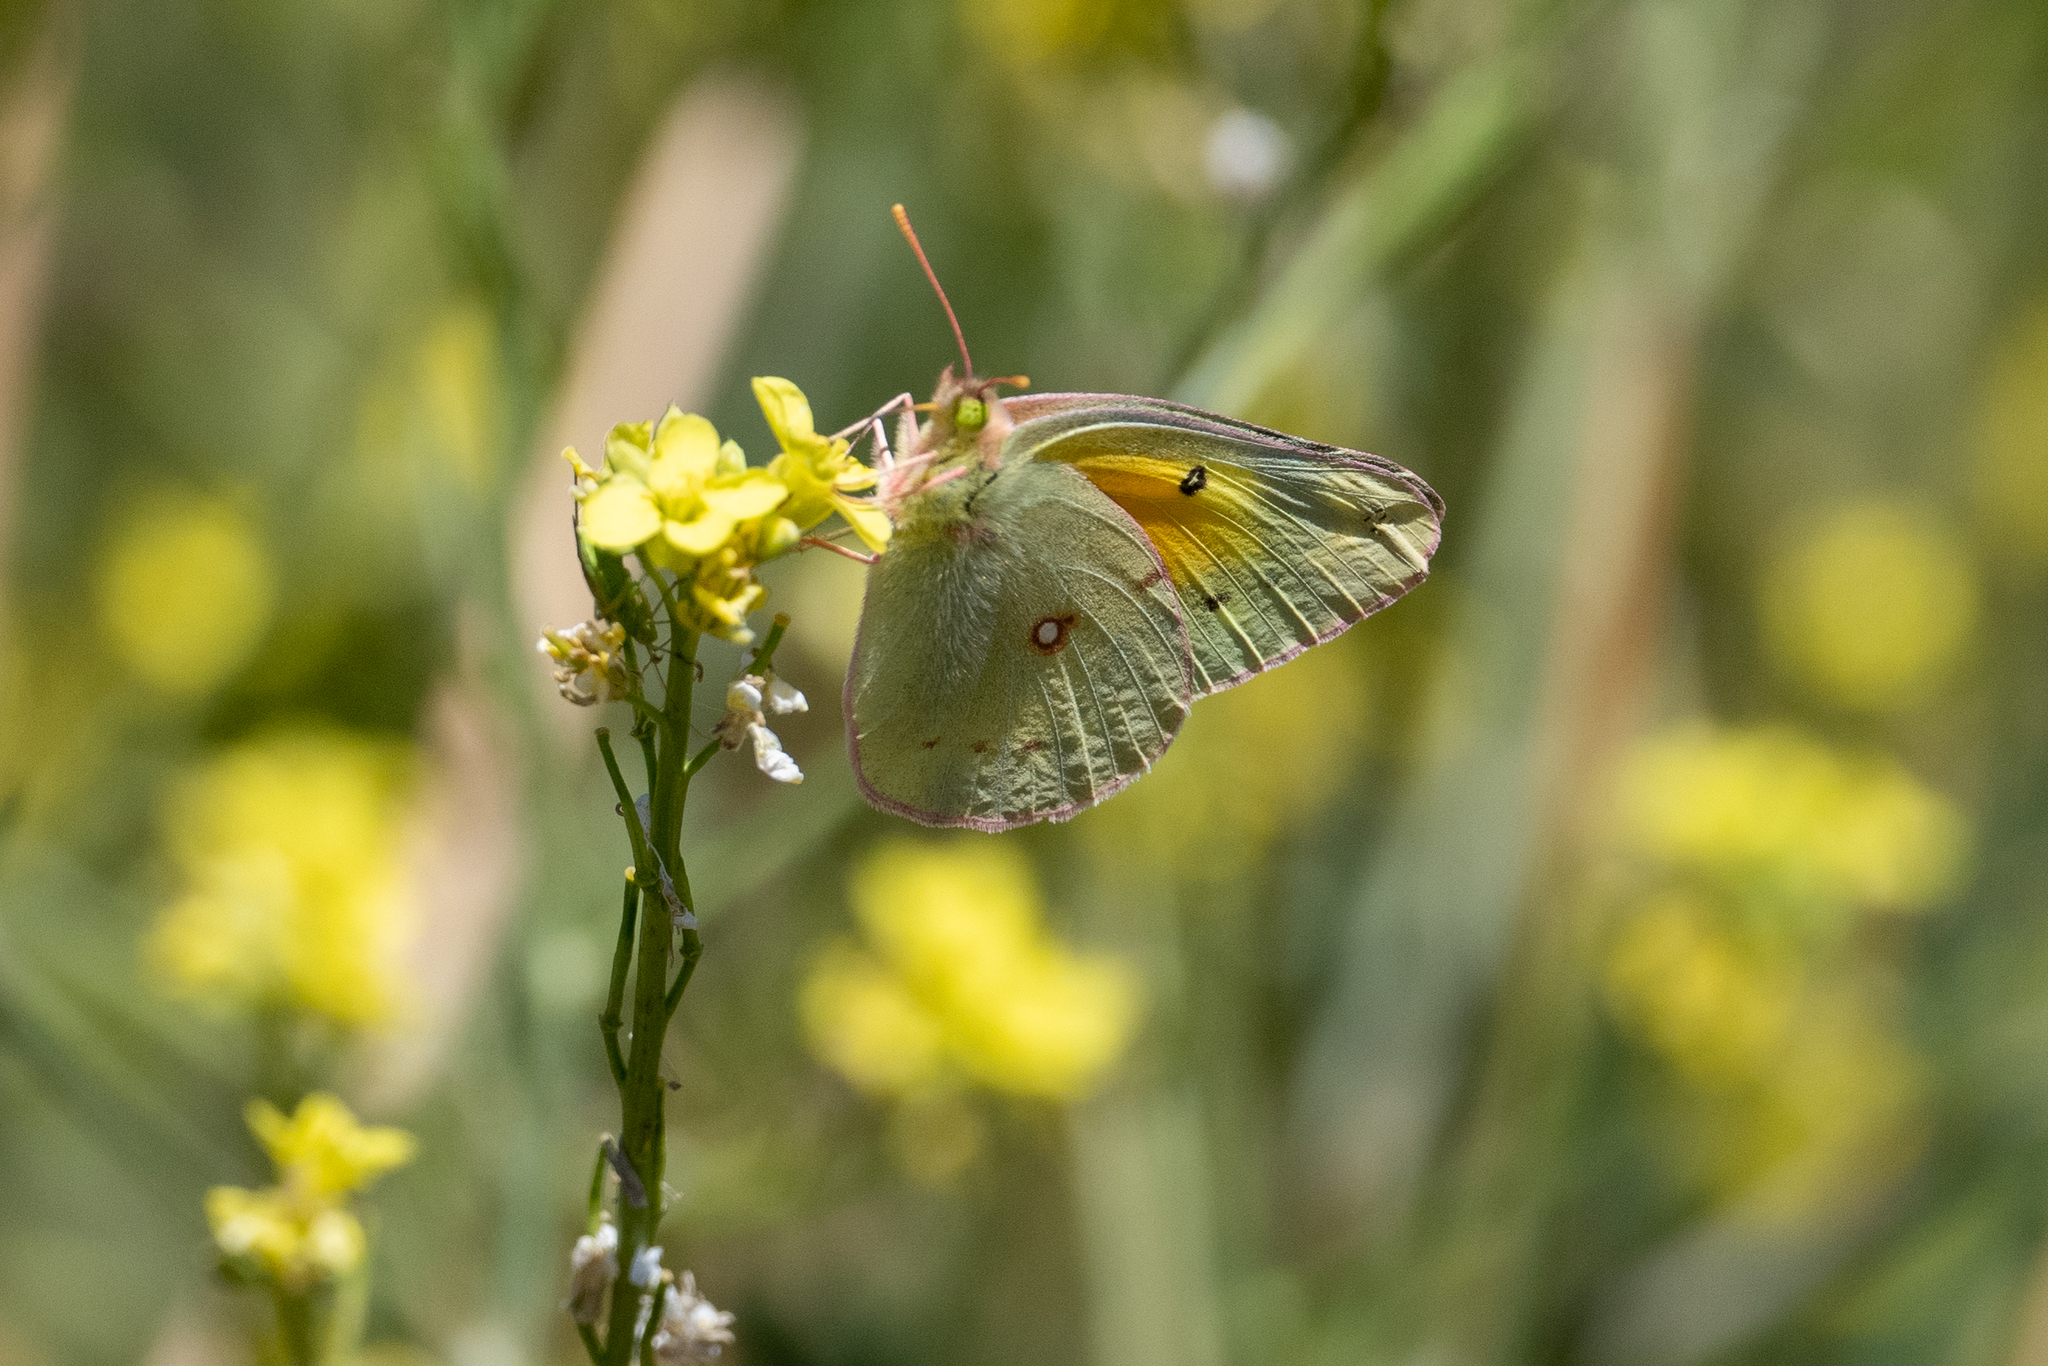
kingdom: Animalia
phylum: Arthropoda
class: Insecta
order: Lepidoptera
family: Pieridae
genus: Colias
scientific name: Colias eurytheme
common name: Alfalfa butterfly
